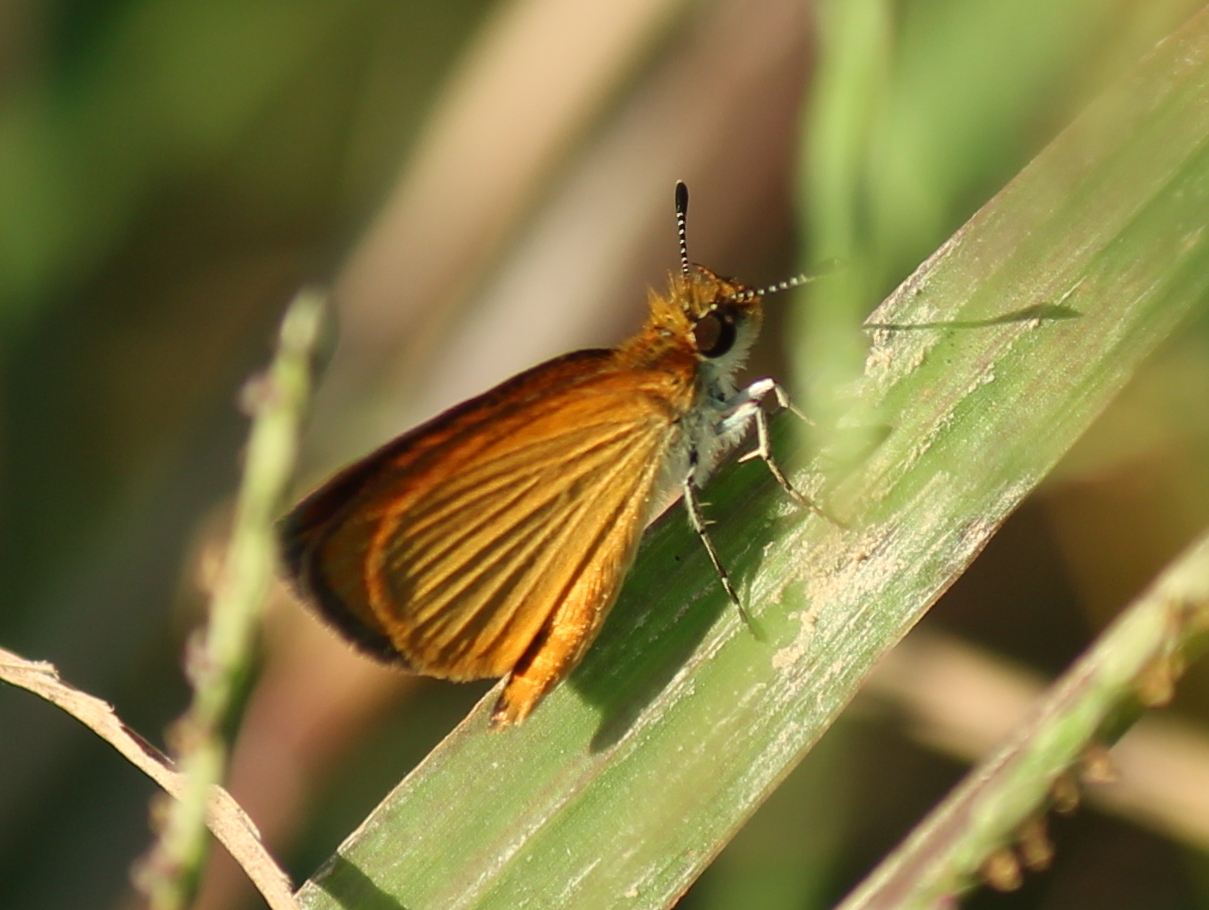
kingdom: Animalia
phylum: Arthropoda
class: Insecta
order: Lepidoptera
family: Hesperiidae
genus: Ancyloxypha
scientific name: Ancyloxypha numitor
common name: Least skipper
